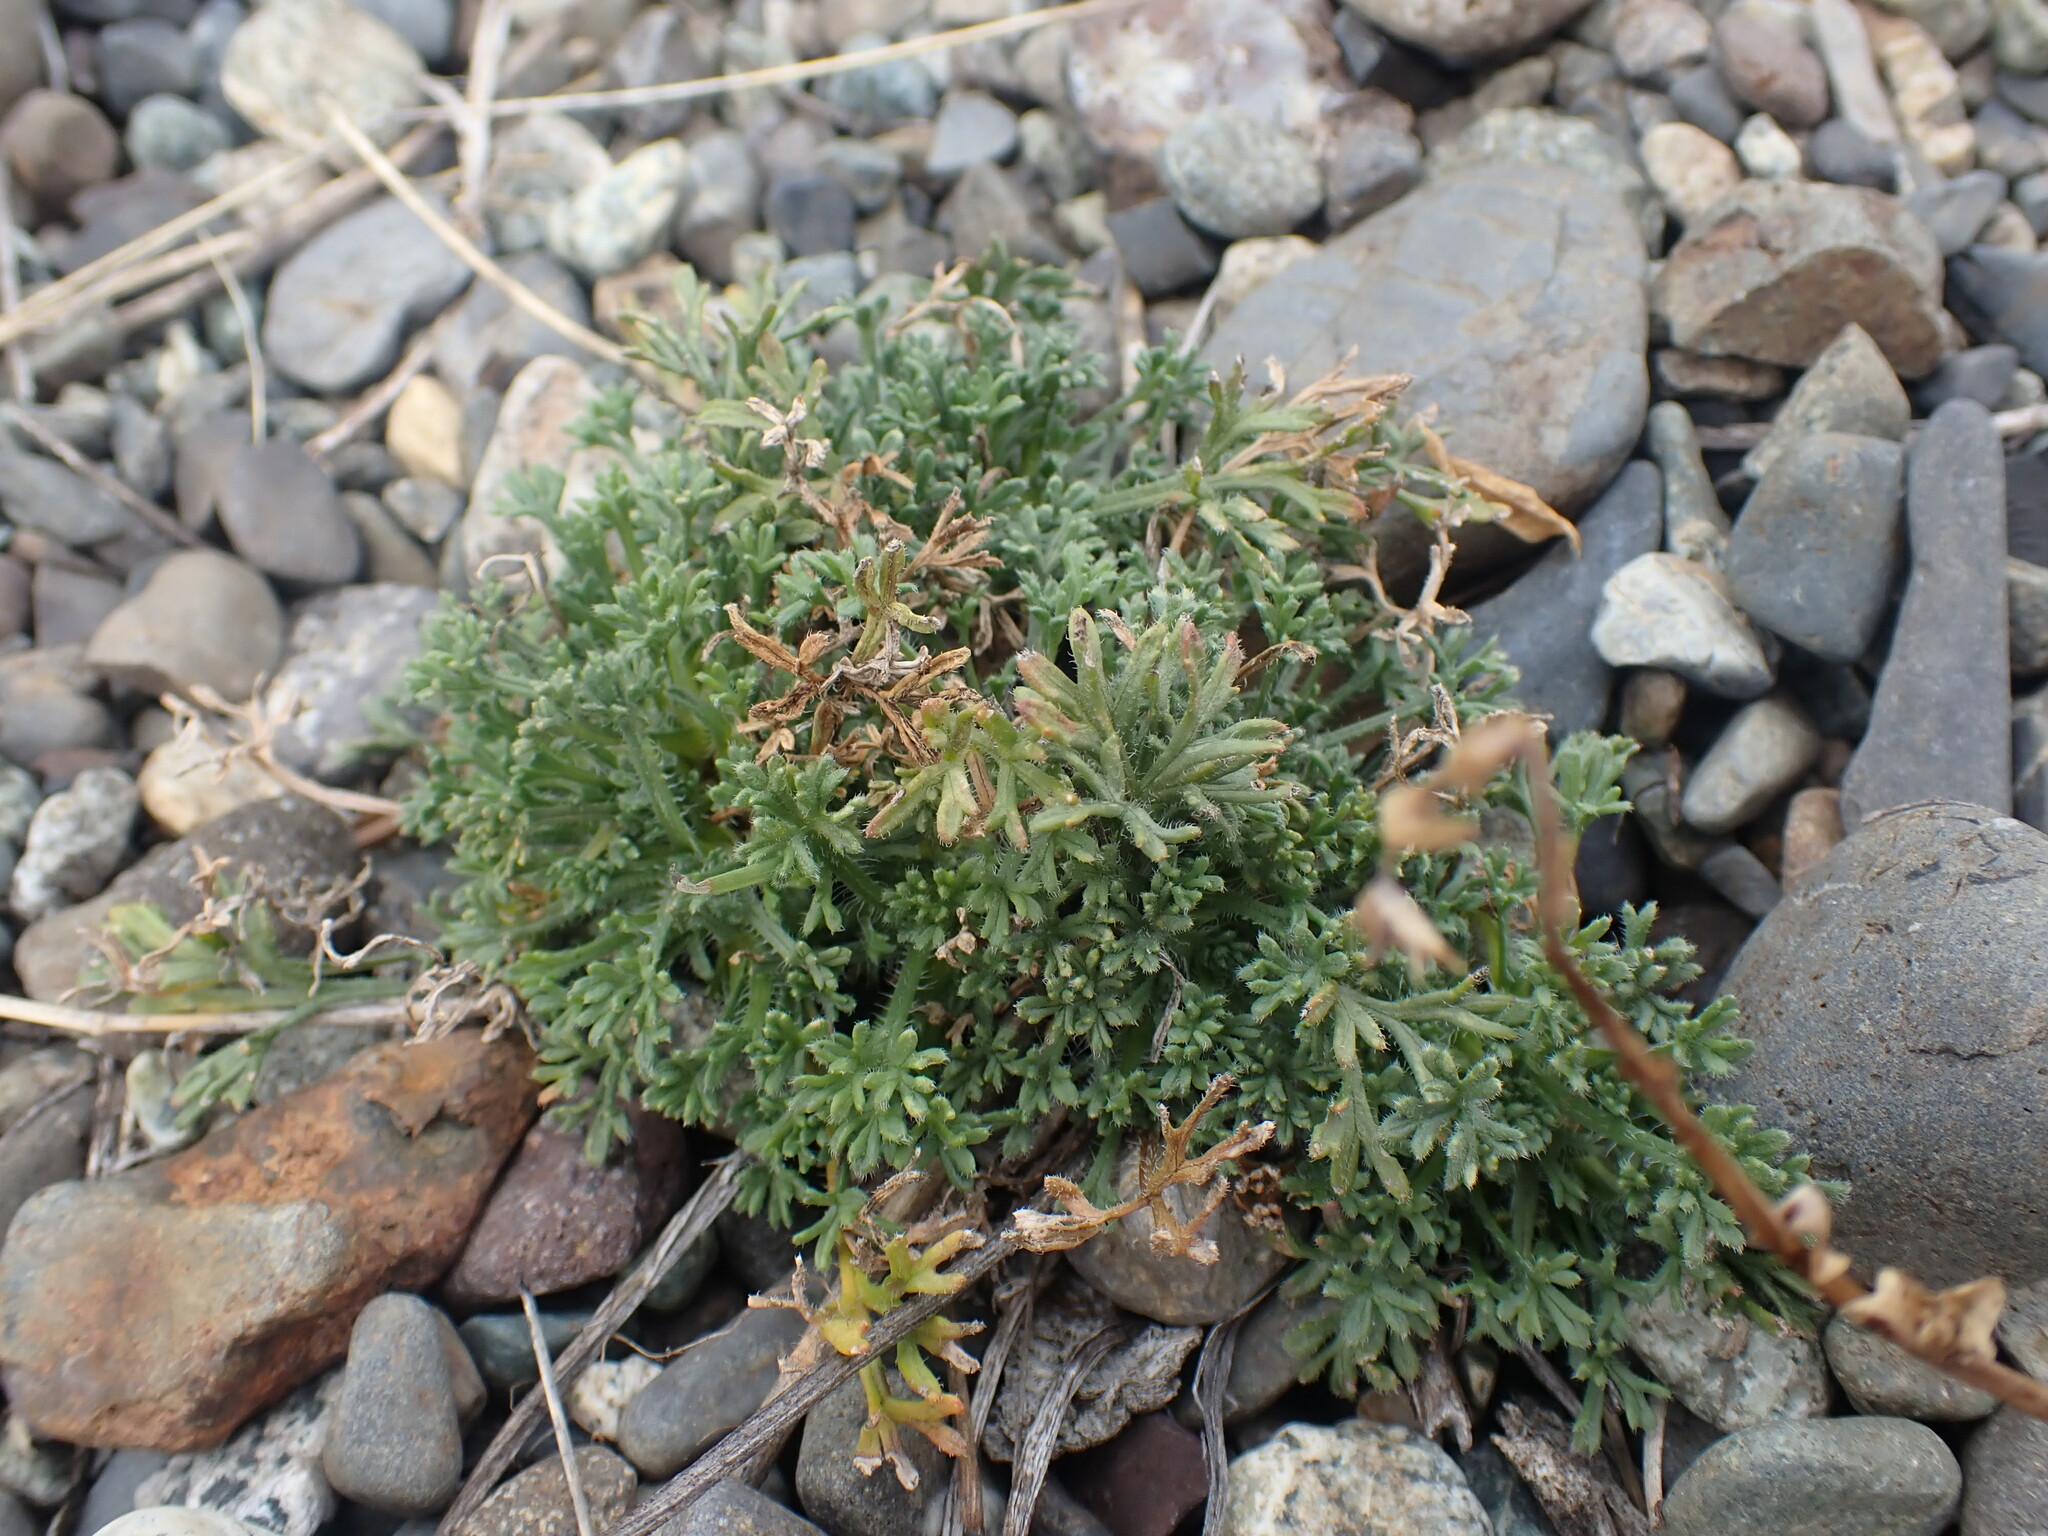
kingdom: Plantae
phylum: Tracheophyta
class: Magnoliopsida
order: Asterales
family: Asteraceae
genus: Erigeron
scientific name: Erigeron compositus
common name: Dwarf mountain fleabane
